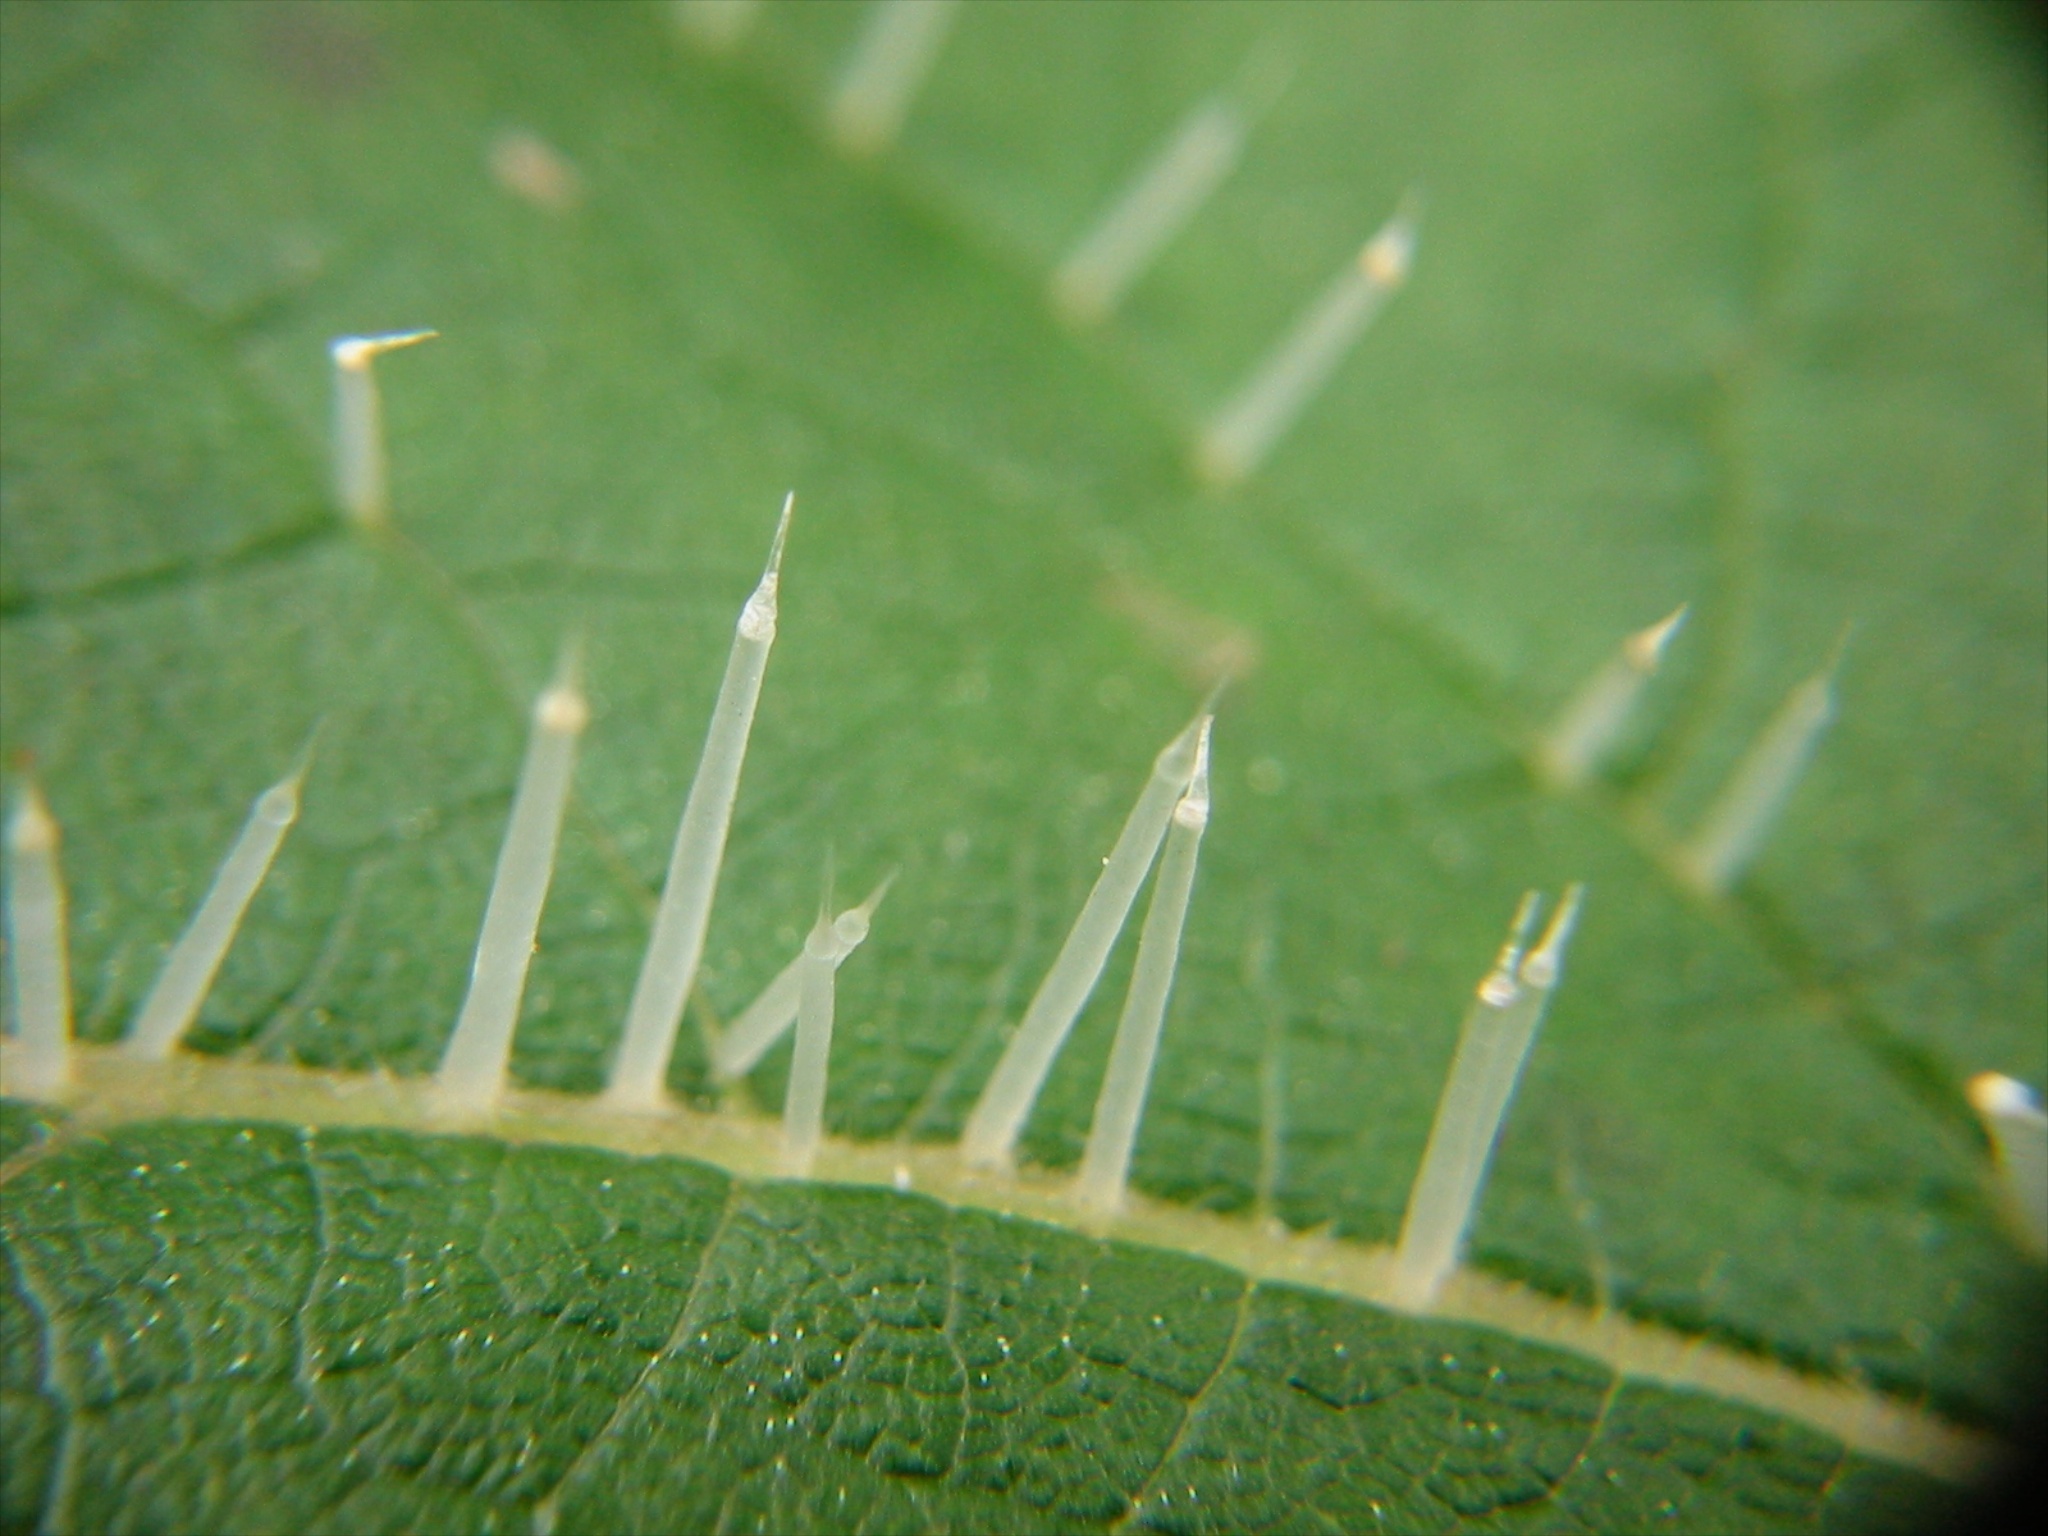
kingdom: Plantae
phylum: Tracheophyta
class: Magnoliopsida
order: Rosales
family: Urticaceae
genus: Urtica
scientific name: Urtica ferox
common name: Tree nettle
